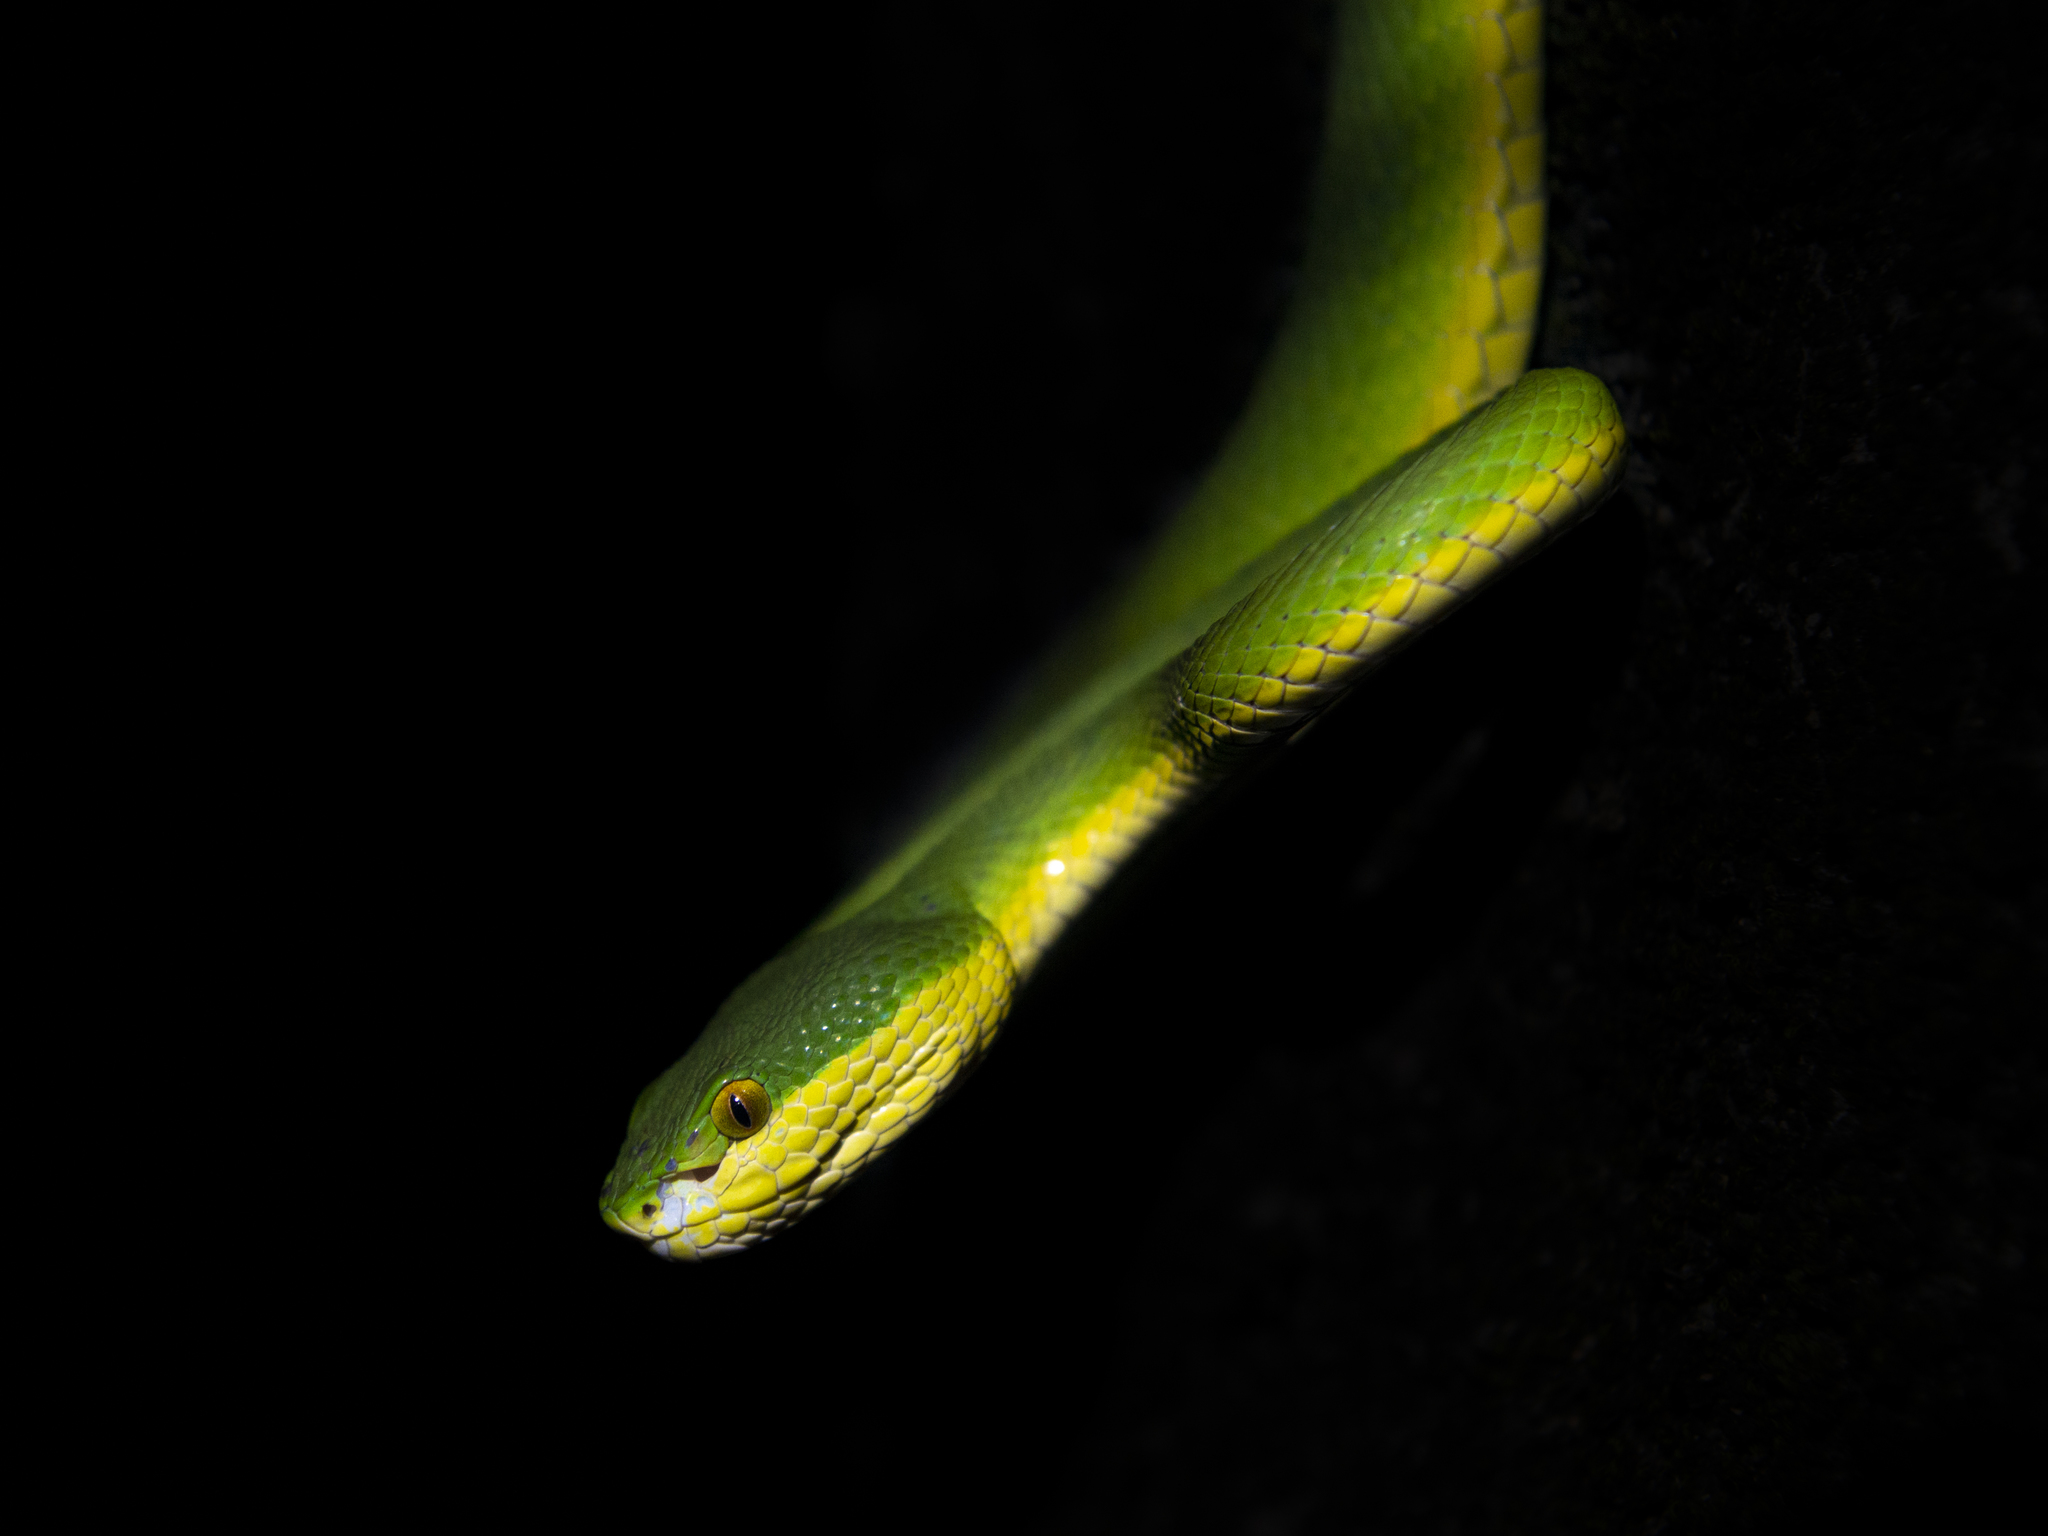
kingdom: Animalia
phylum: Chordata
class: Squamata
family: Viperidae
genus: Trimeresurus
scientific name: Trimeresurus albolabris
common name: White-lipped pitviper
